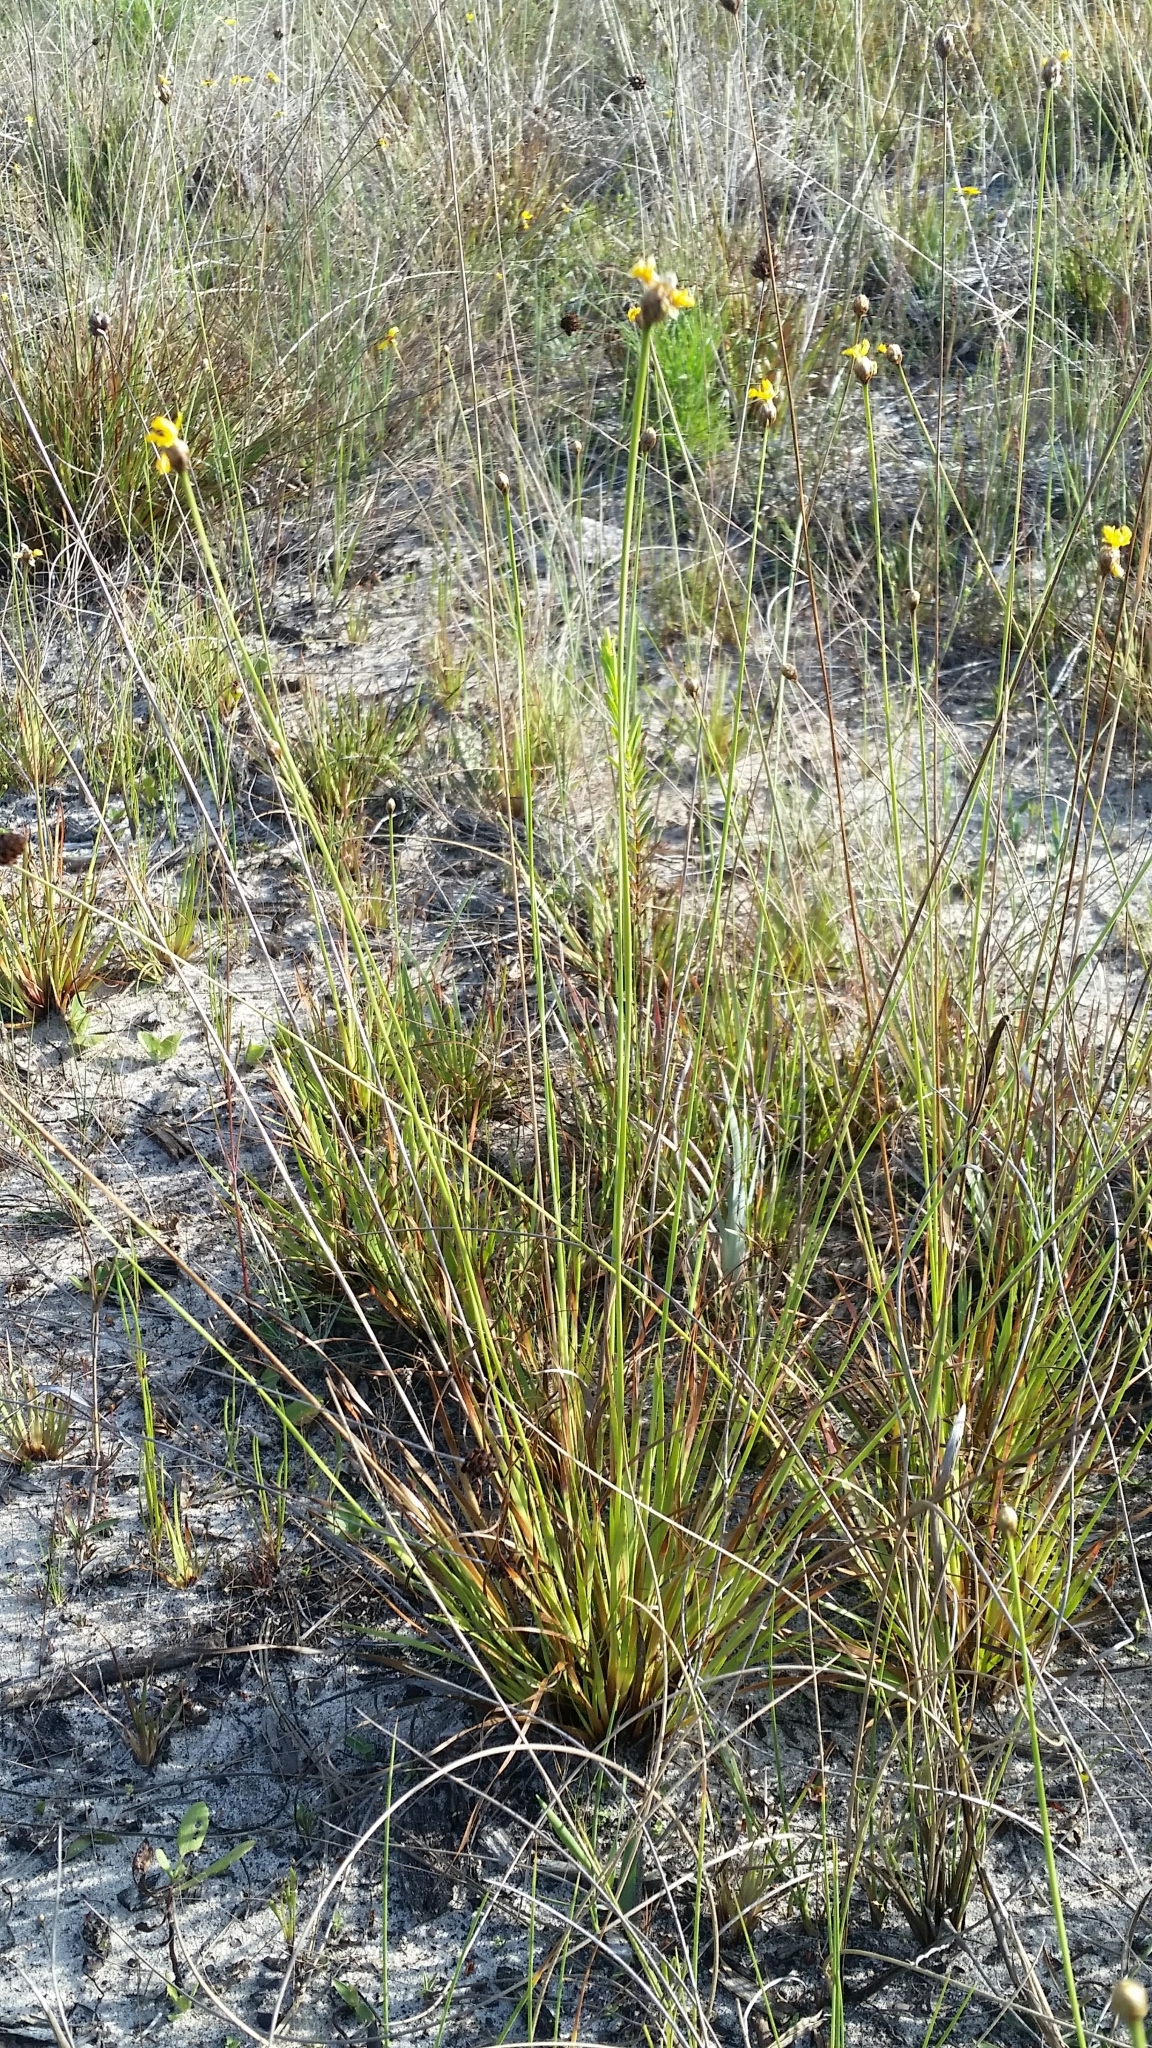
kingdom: Plantae
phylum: Tracheophyta
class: Liliopsida
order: Poales
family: Xyridaceae
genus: Xyris
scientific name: Xyris elliottii
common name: Elliot's yelloweyed grass
